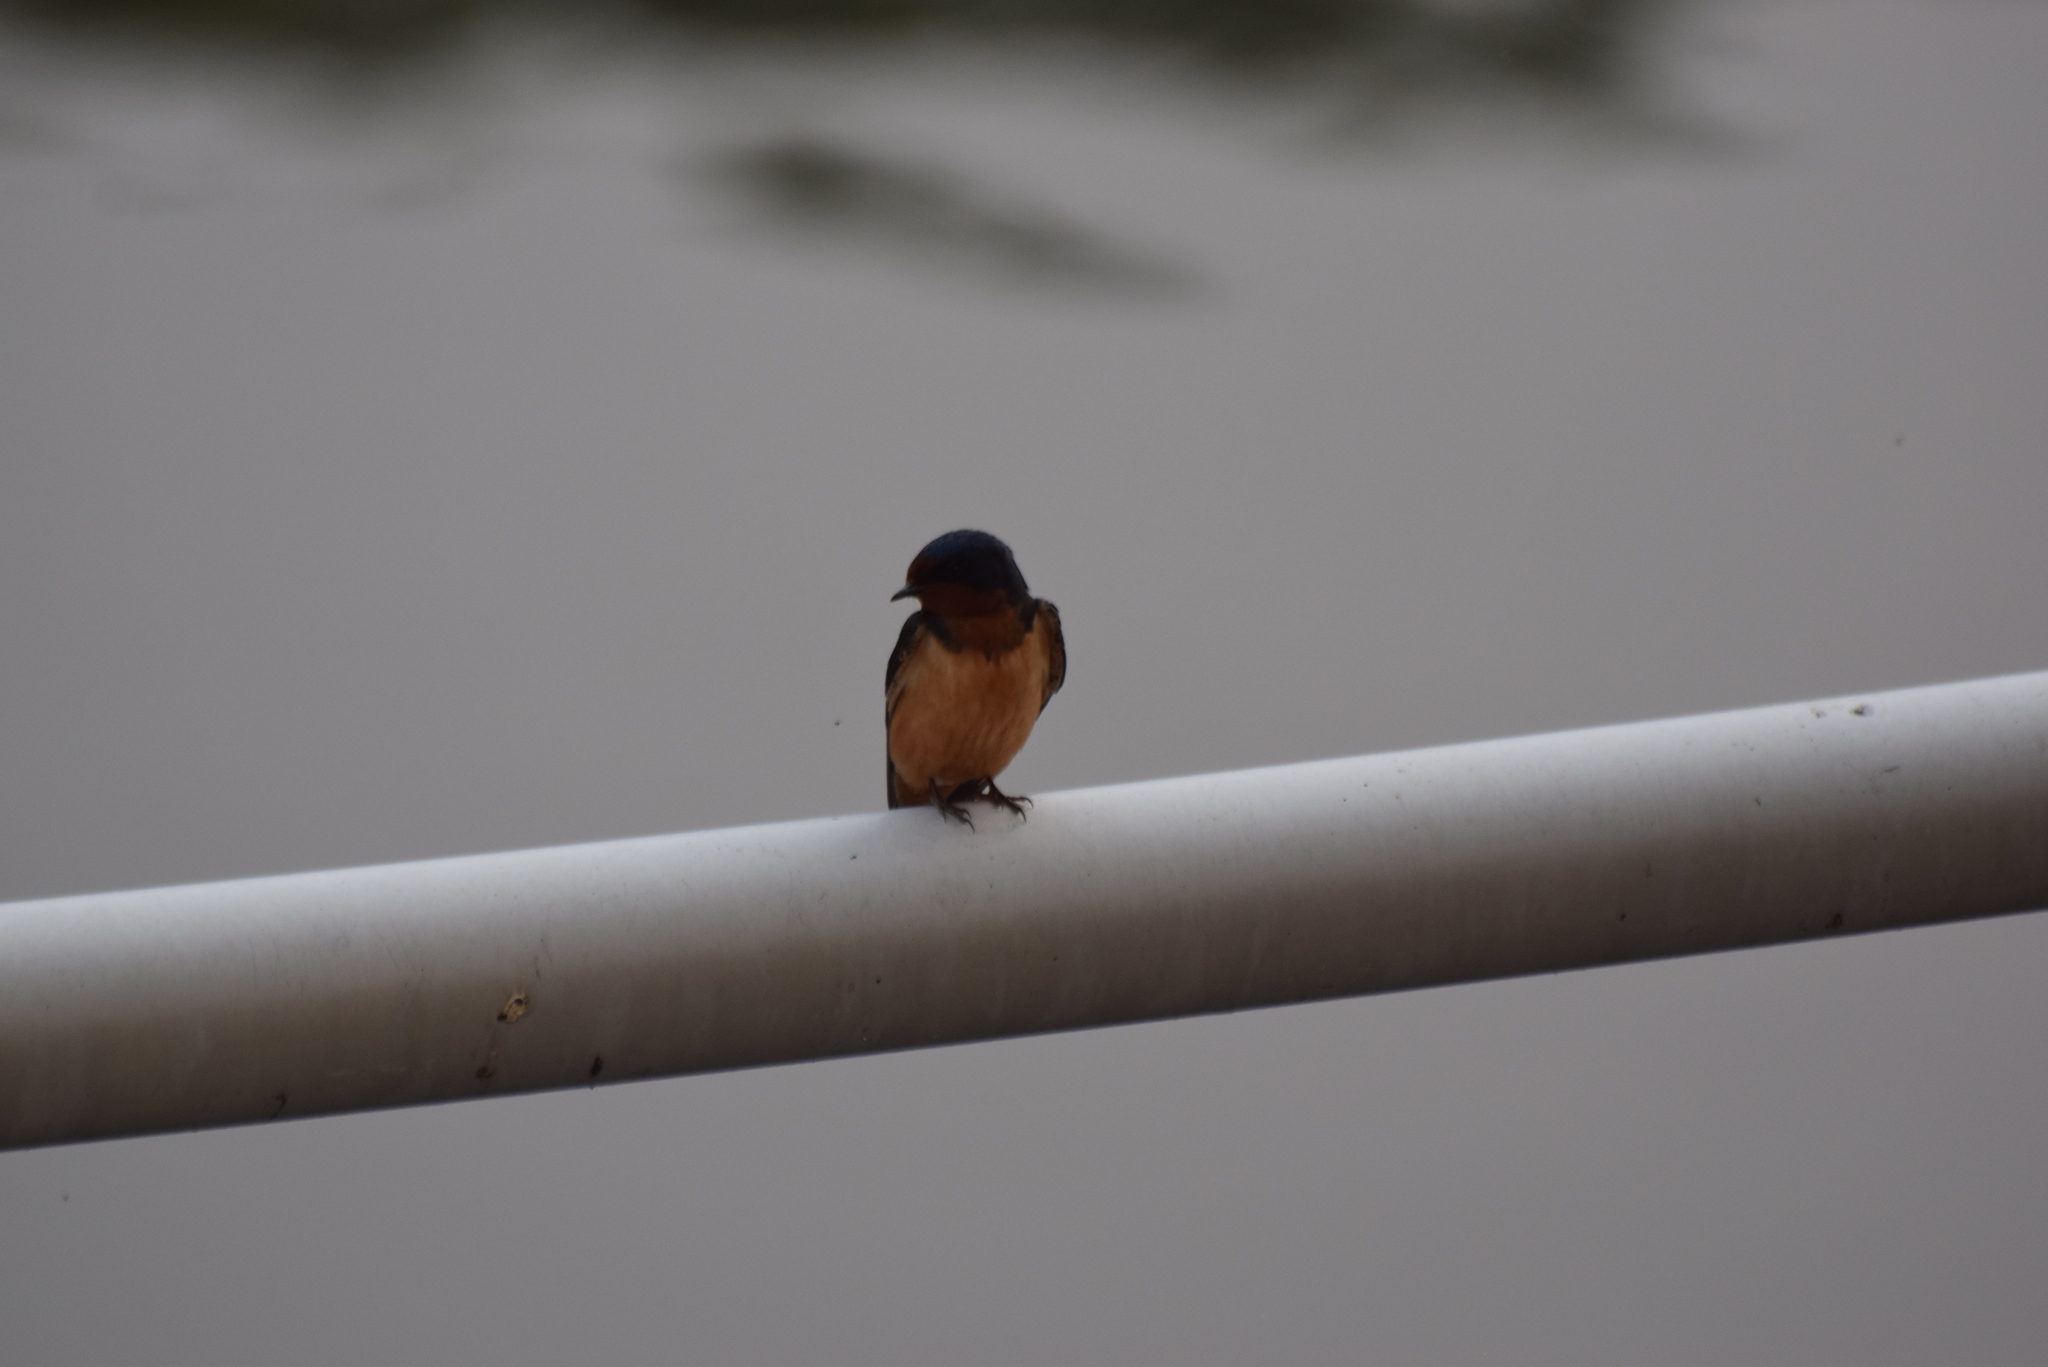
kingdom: Animalia
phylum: Chordata
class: Aves
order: Passeriformes
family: Hirundinidae
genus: Hirundo
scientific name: Hirundo rustica
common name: Barn swallow
